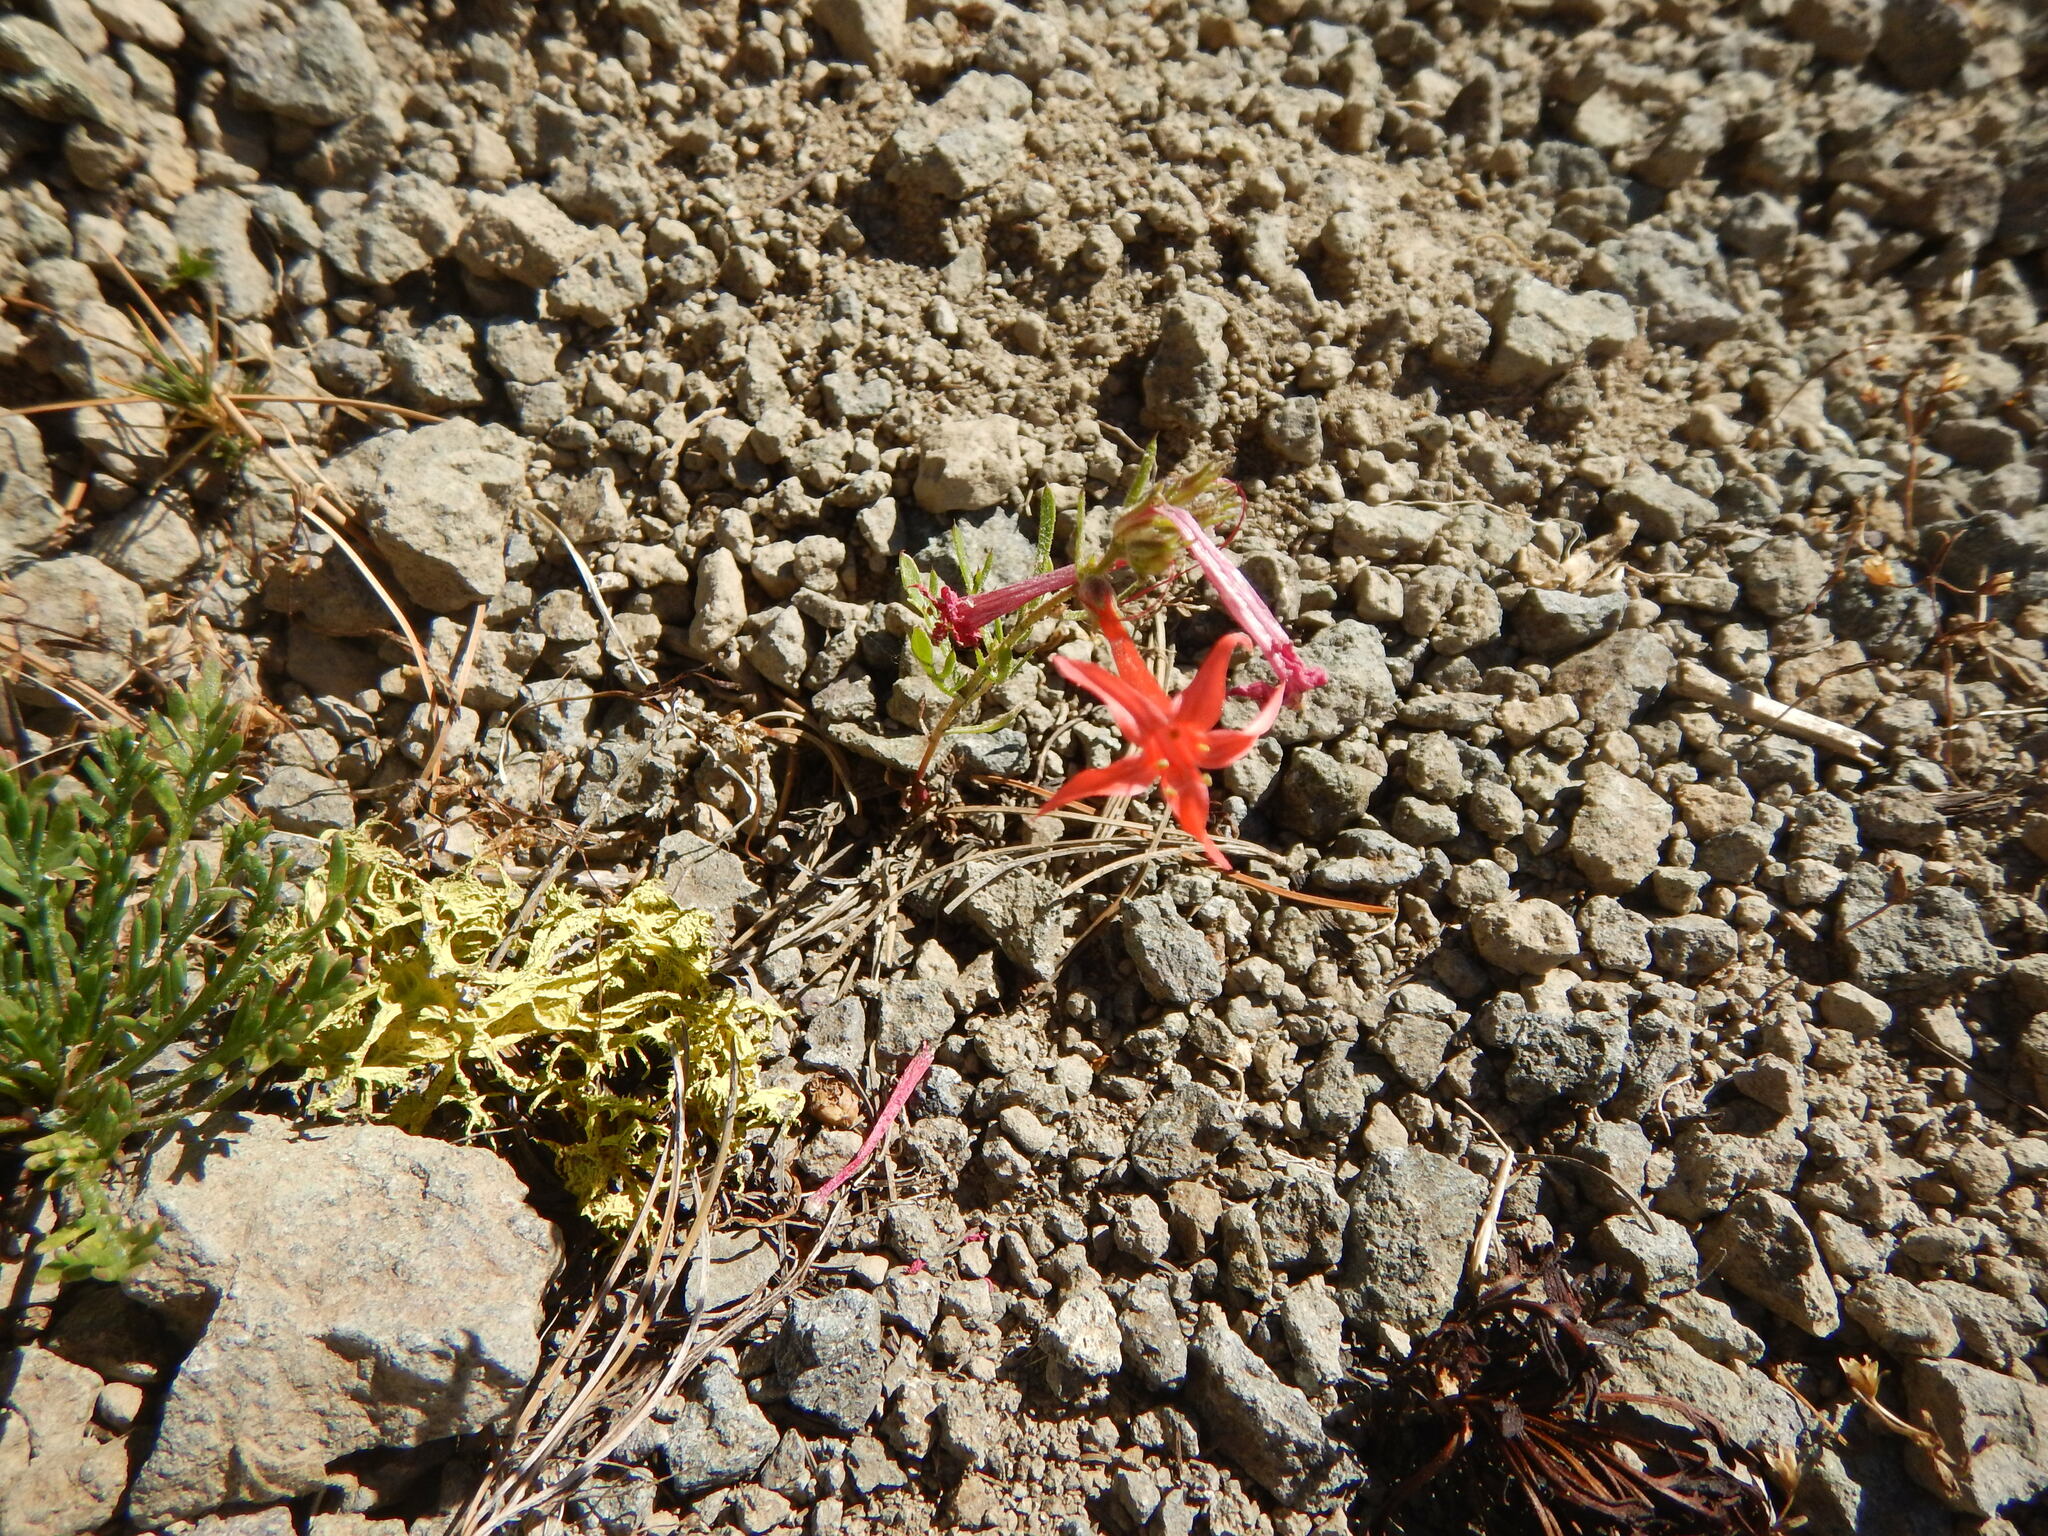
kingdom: Plantae
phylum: Tracheophyta
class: Magnoliopsida
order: Ericales
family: Polemoniaceae
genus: Ipomopsis
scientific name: Ipomopsis aggregata
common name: Scarlet gilia
